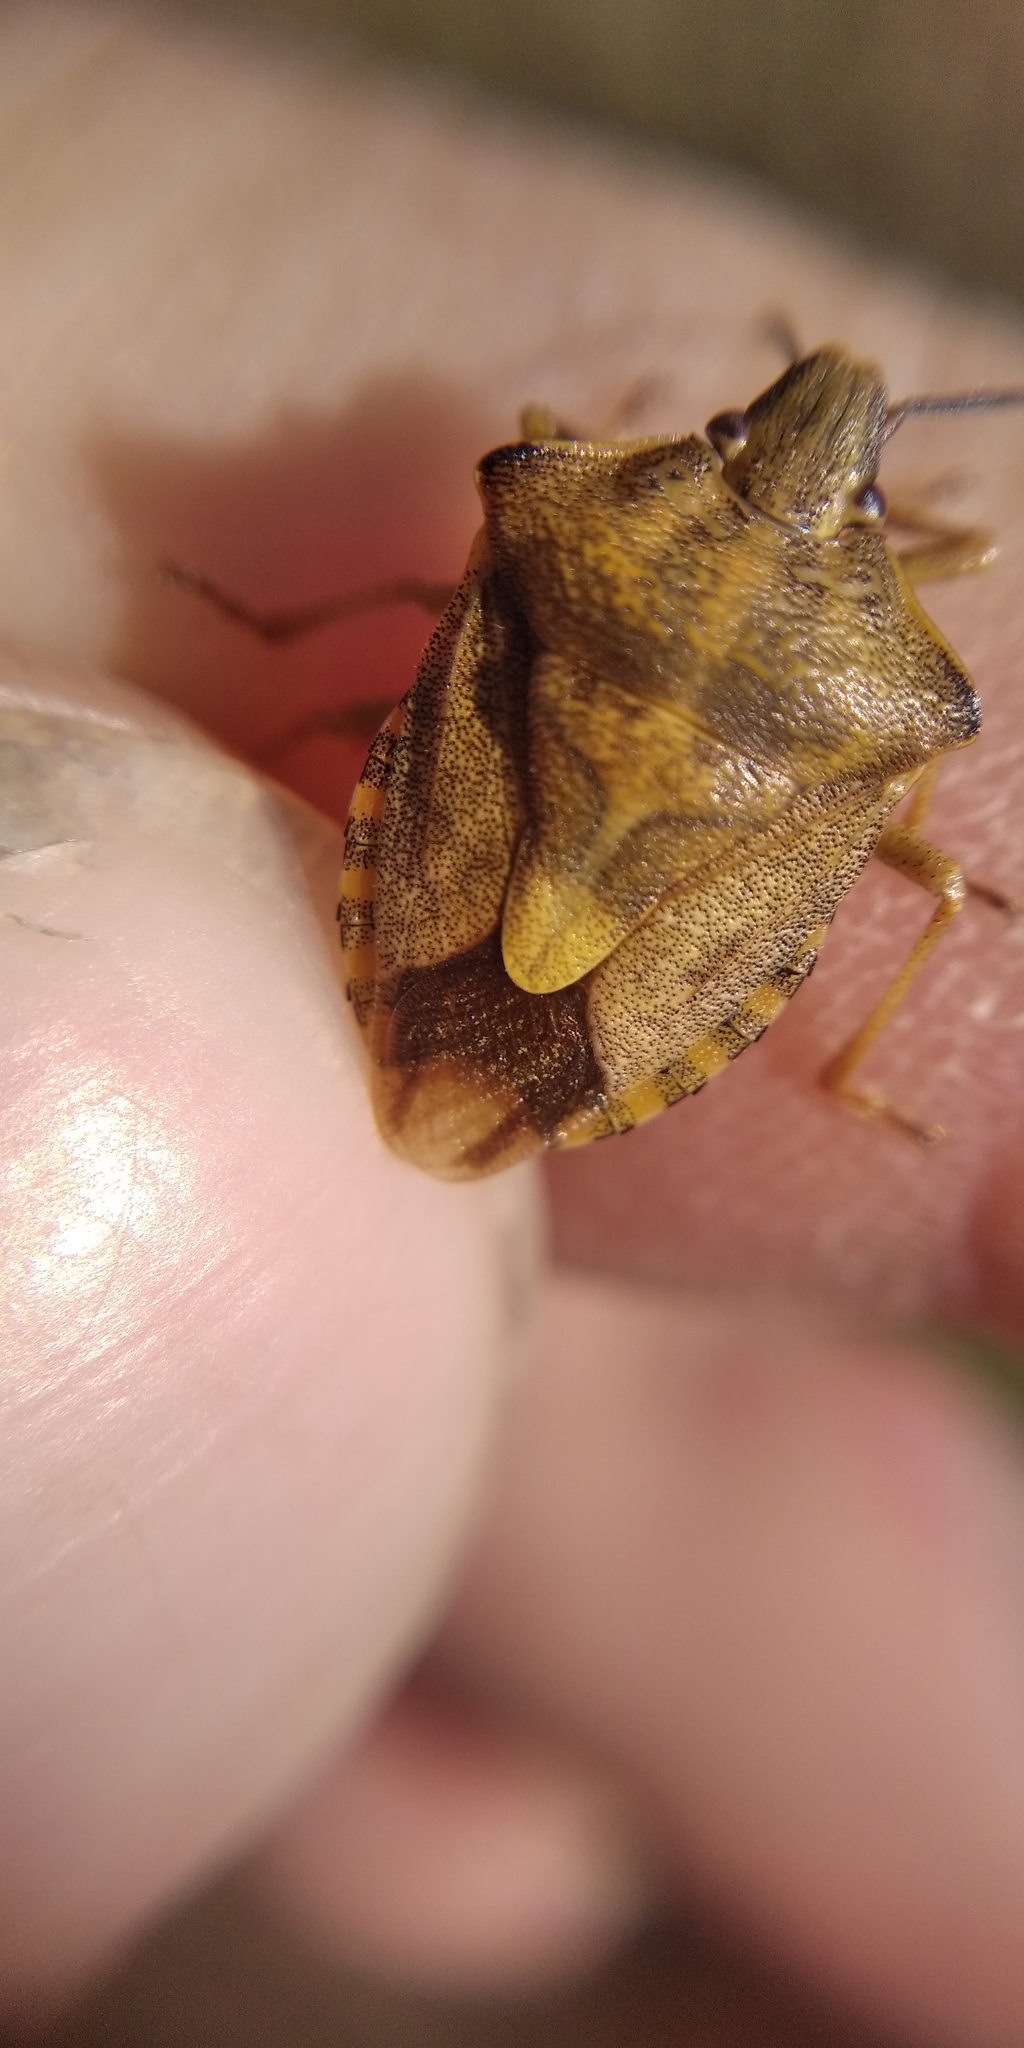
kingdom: Animalia
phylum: Arthropoda
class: Insecta
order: Hemiptera
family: Pentatomidae
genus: Carpocoris
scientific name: Carpocoris purpureipennis
